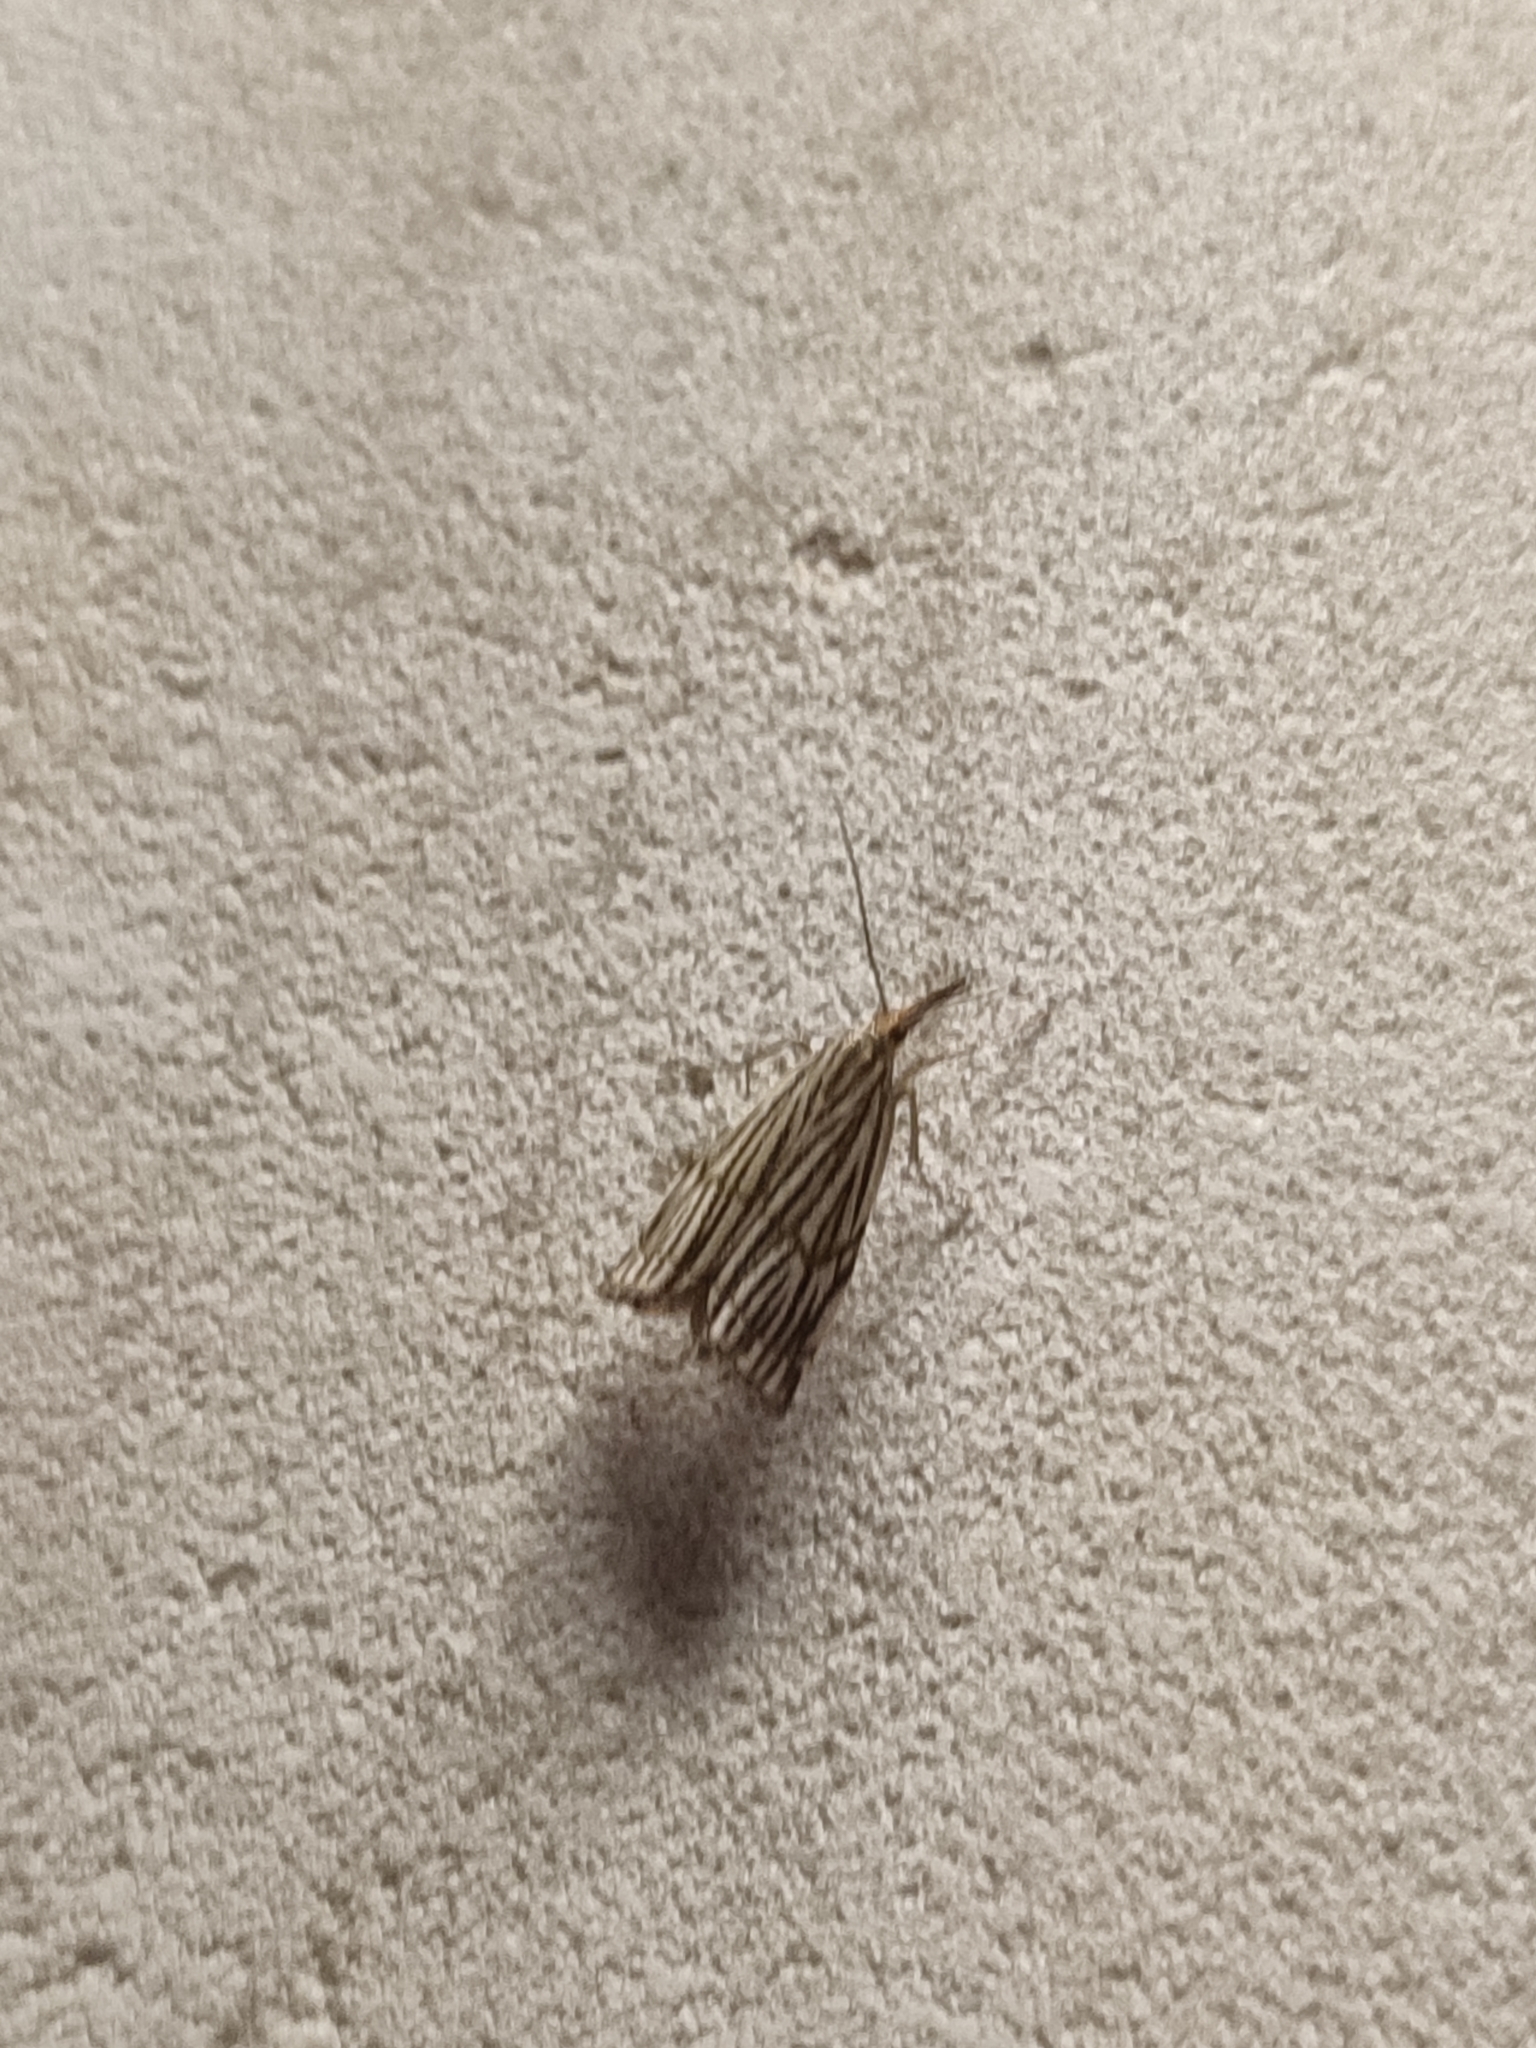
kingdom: Animalia
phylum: Arthropoda
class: Insecta
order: Lepidoptera
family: Crambidae
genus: Chrysocrambus
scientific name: Chrysocrambus Chrysocramboides craterellus
